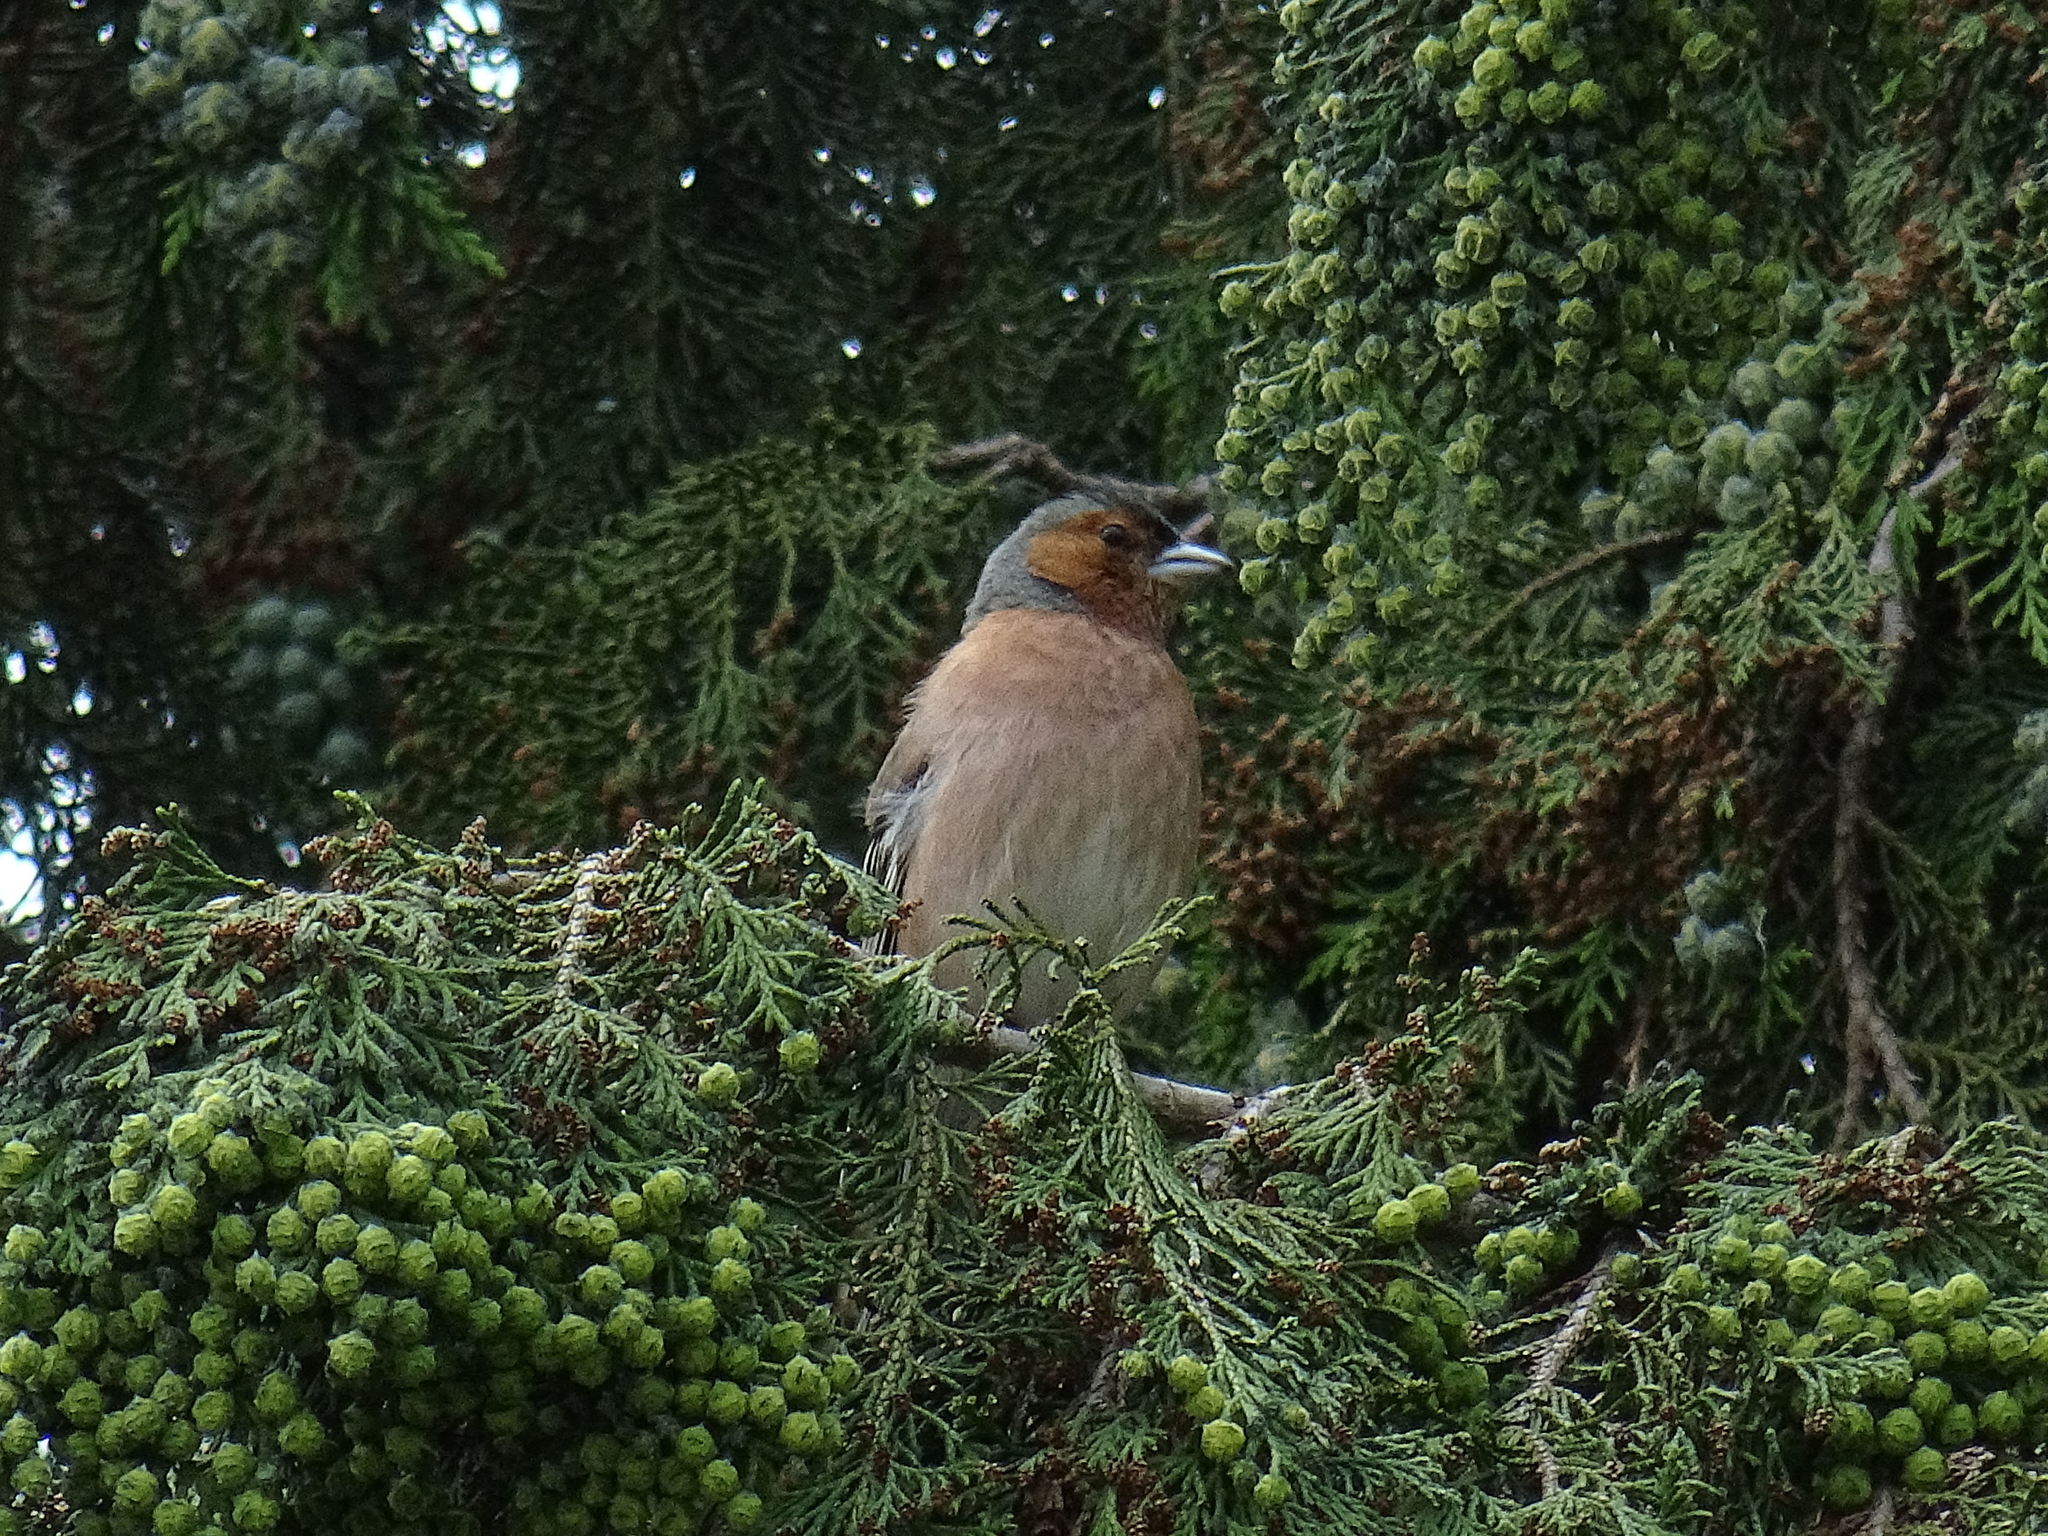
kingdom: Animalia
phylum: Chordata
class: Aves
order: Passeriformes
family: Fringillidae
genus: Fringilla
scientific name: Fringilla coelebs
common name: Common chaffinch
